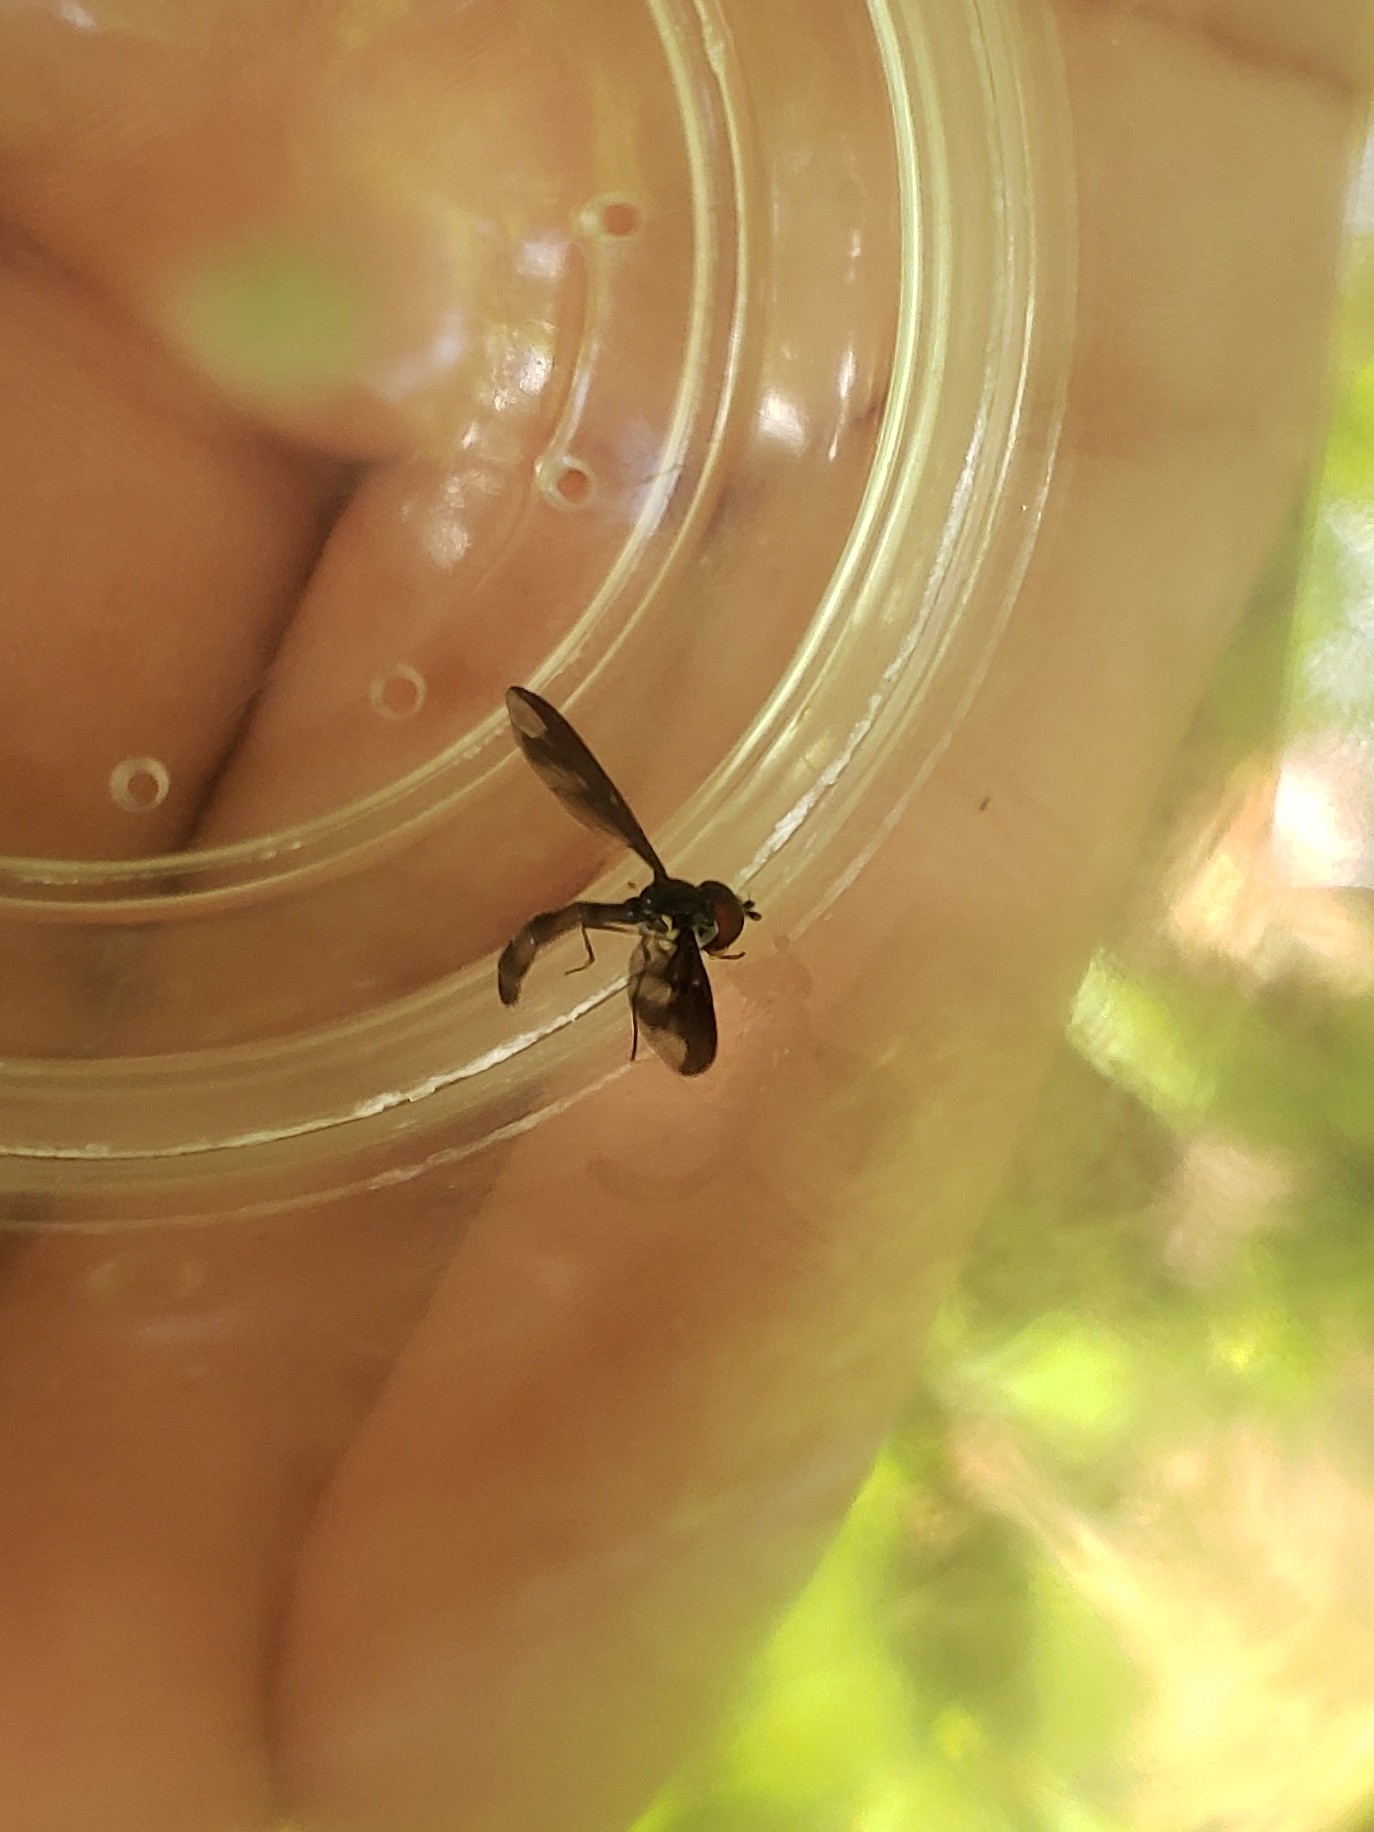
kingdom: Animalia
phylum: Arthropoda
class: Insecta
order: Diptera
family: Syrphidae
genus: Ocyptamus
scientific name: Ocyptamus fuscipennis
